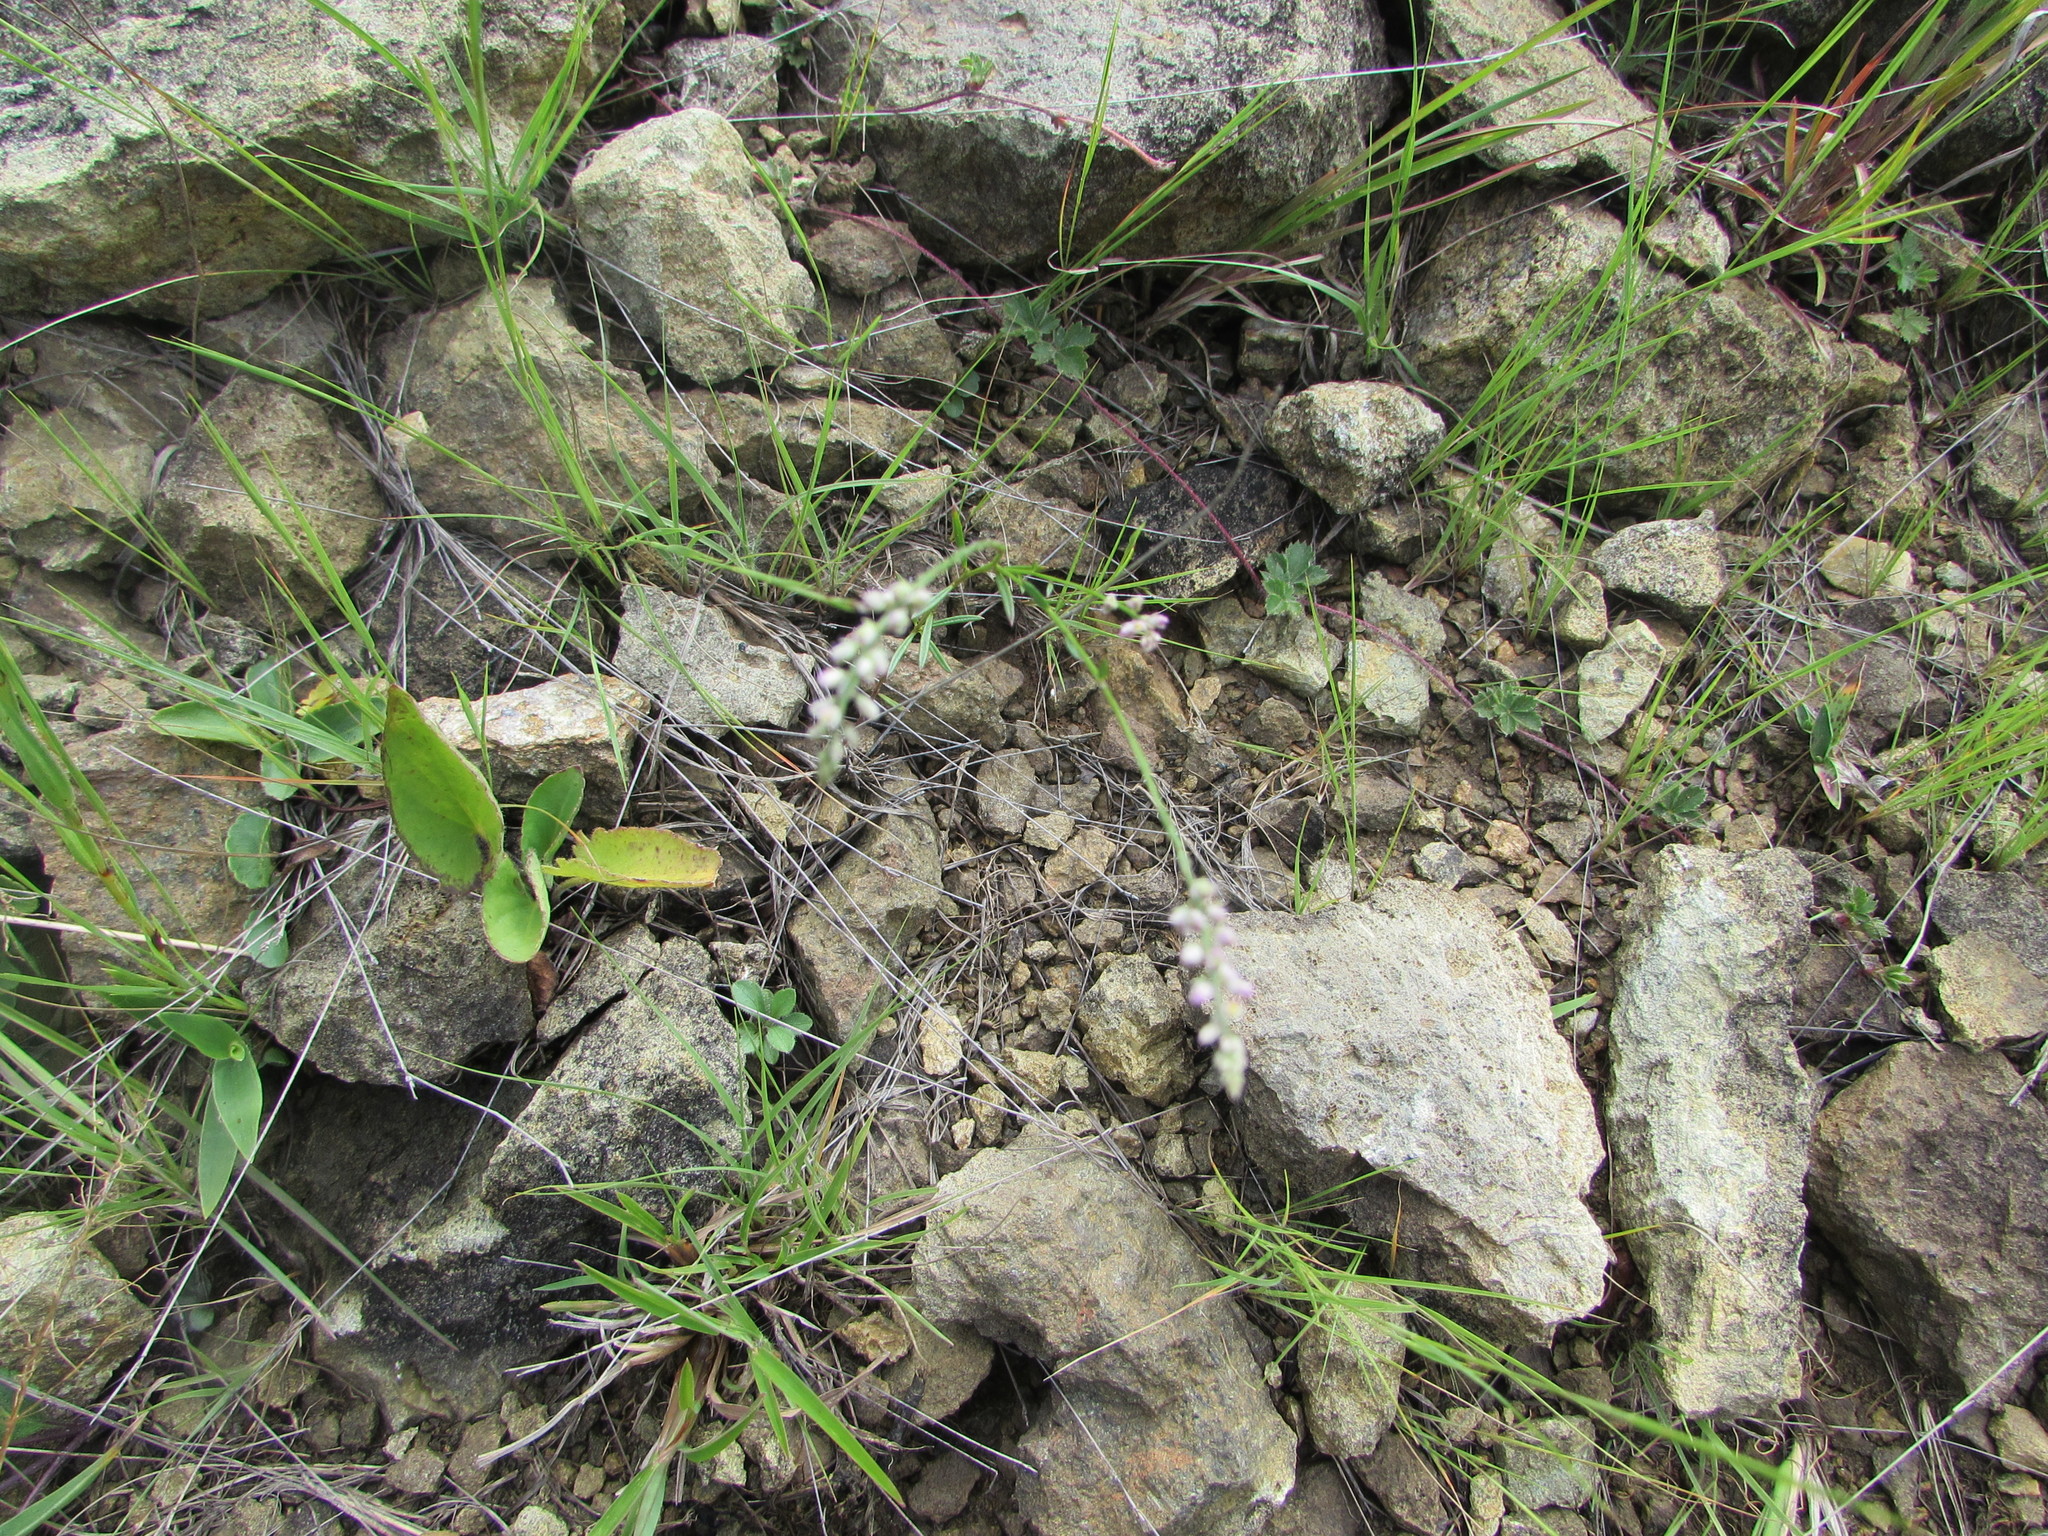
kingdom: Plantae
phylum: Tracheophyta
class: Magnoliopsida
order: Fabales
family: Polygalaceae
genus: Polygala
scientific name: Polygala verticillata
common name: Whorl milkwort
